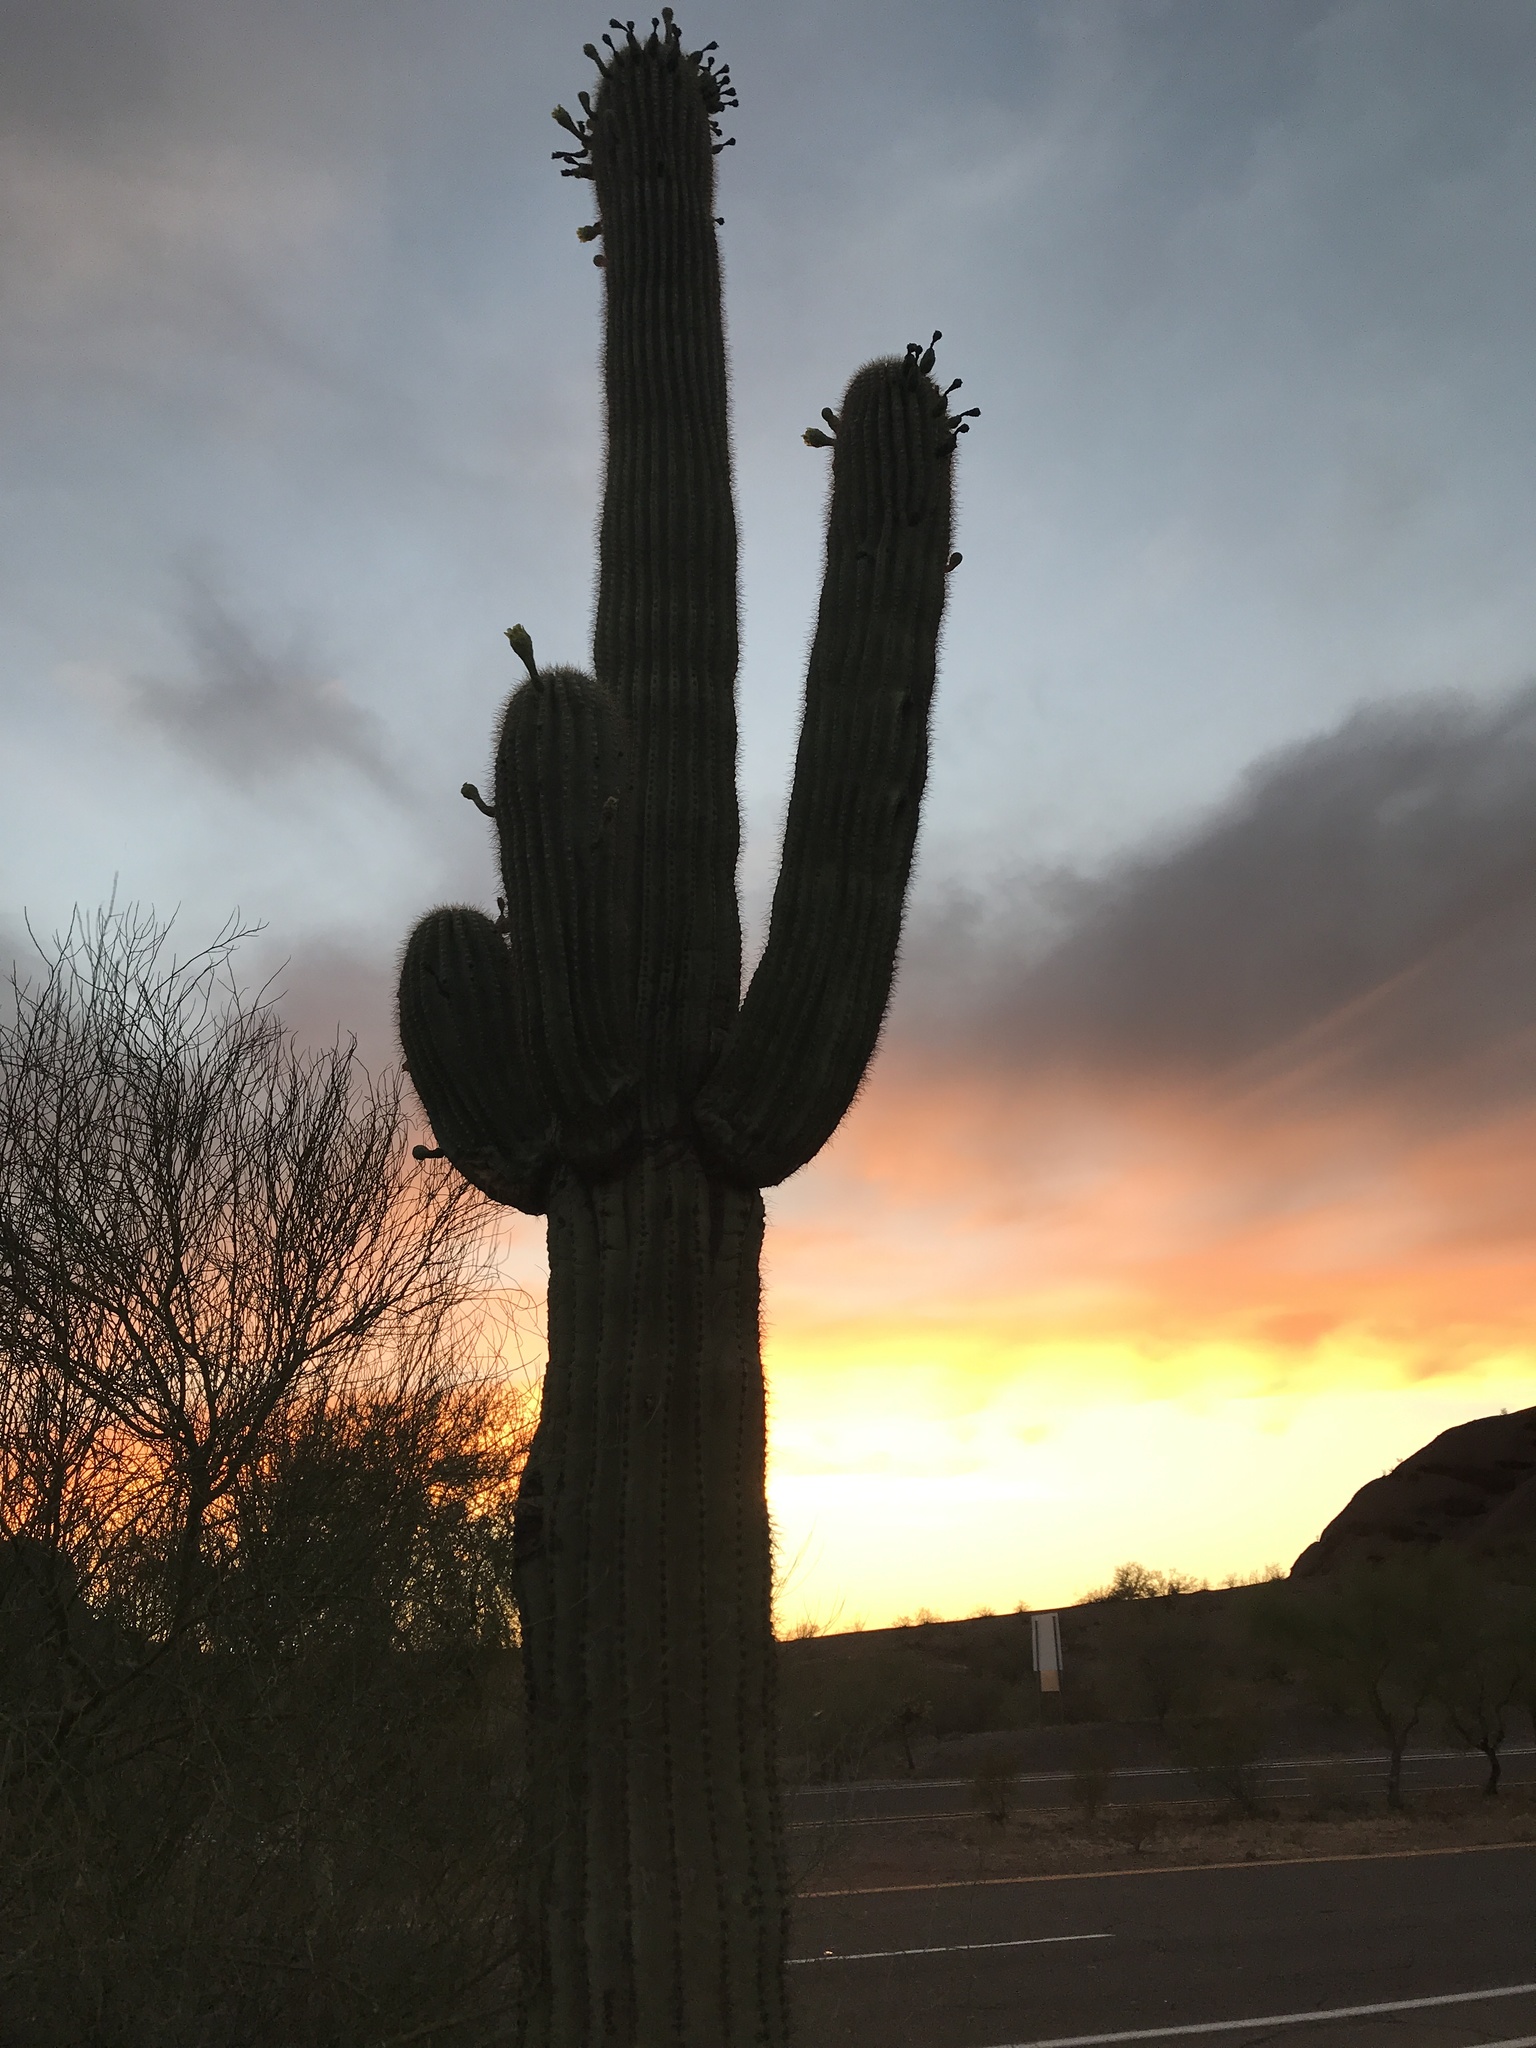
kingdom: Plantae
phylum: Tracheophyta
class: Magnoliopsida
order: Caryophyllales
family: Cactaceae
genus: Carnegiea
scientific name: Carnegiea gigantea
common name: Saguaro
